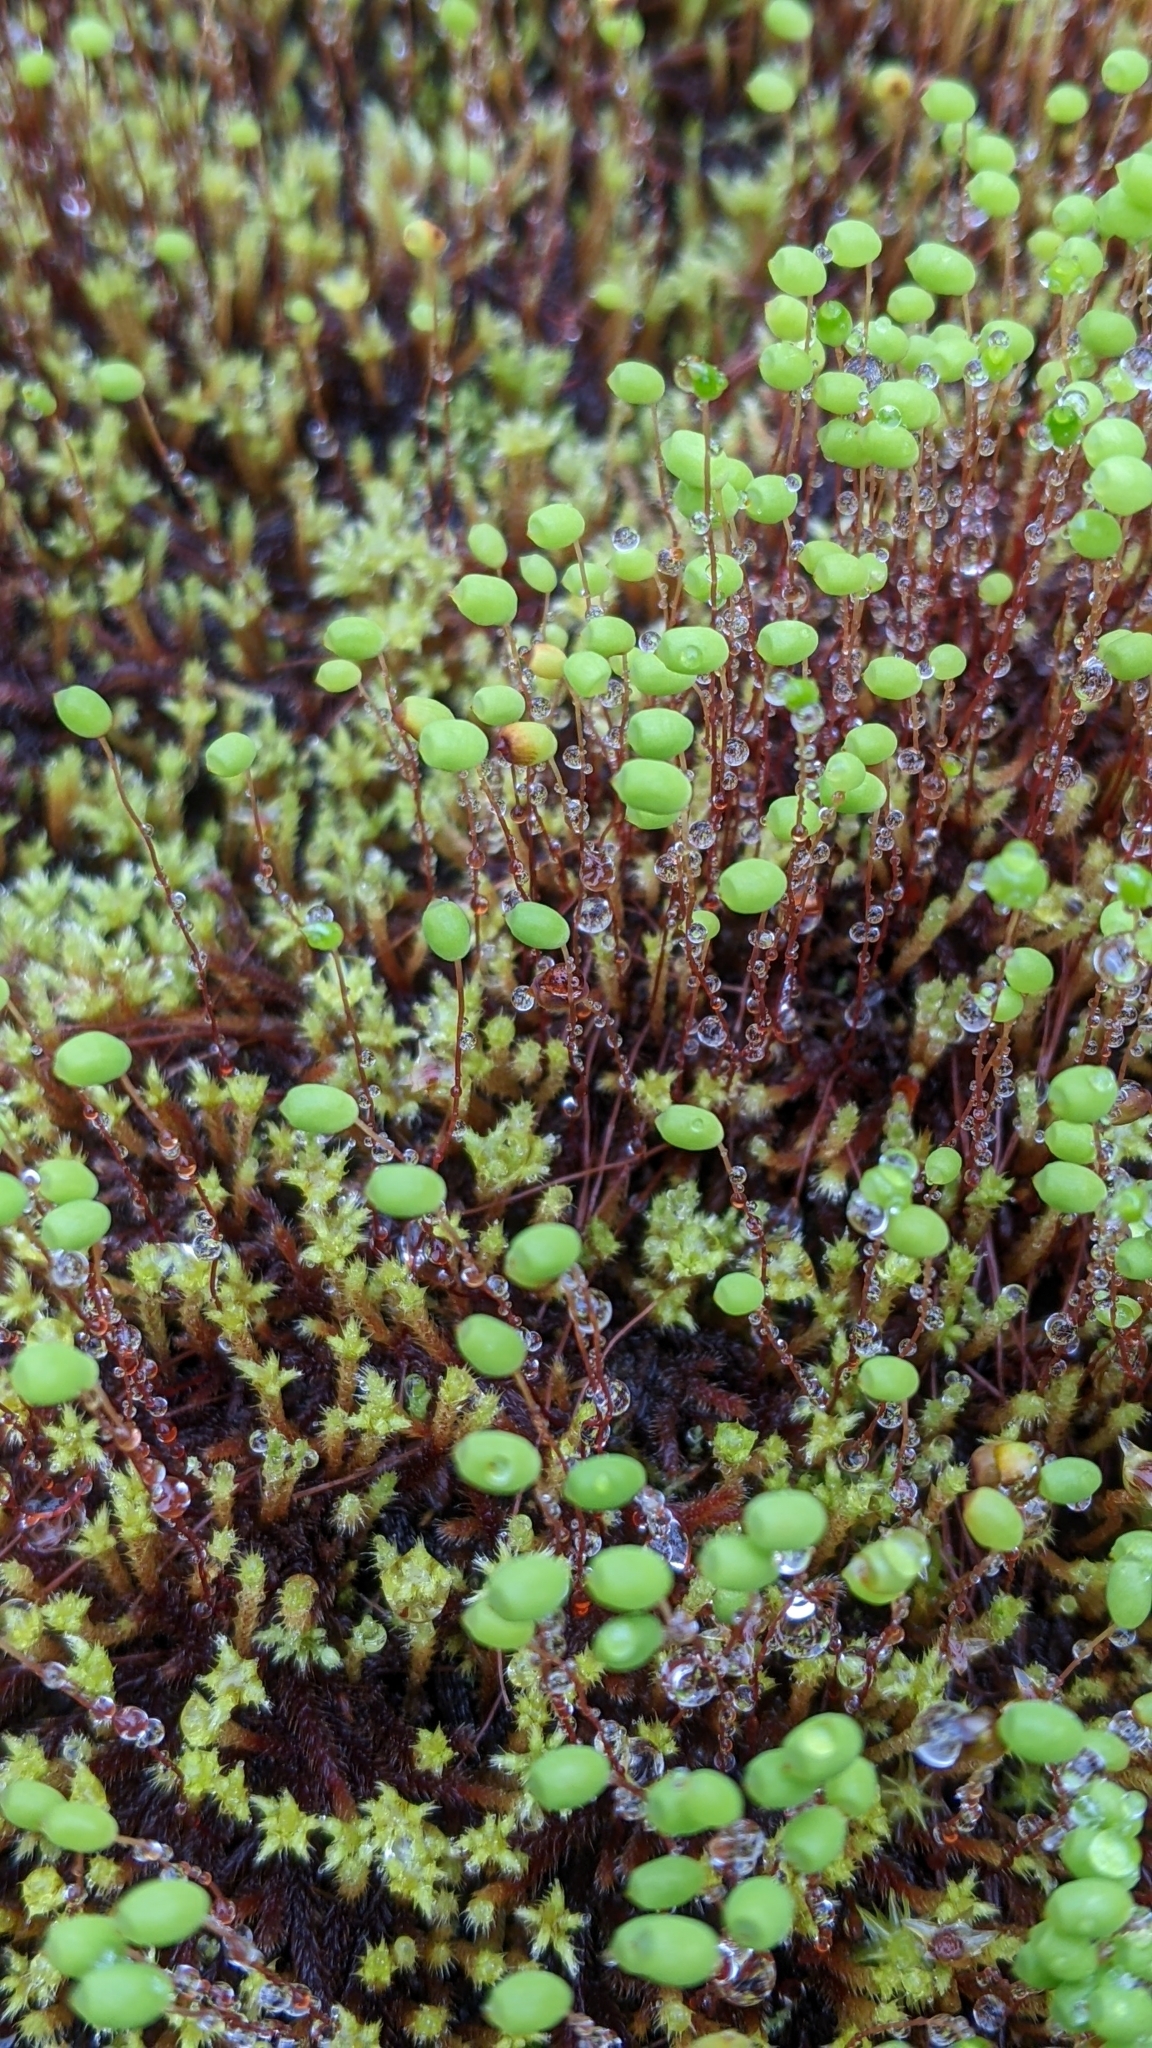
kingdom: Plantae
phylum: Bryophyta
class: Bryopsida
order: Bartramiales
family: Bartramiaceae
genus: Philonotis
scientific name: Philonotis fontana
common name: Fountain apple-moss
